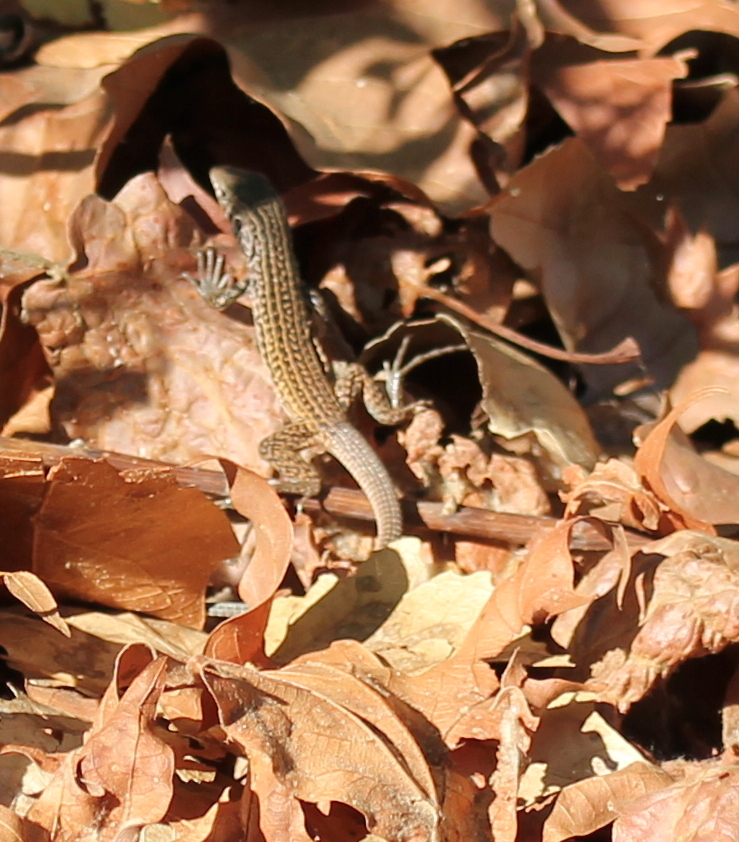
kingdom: Animalia
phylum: Chordata
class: Squamata
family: Teiidae
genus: Aspidoscelis
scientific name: Aspidoscelis tigris
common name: Tiger whiptail
